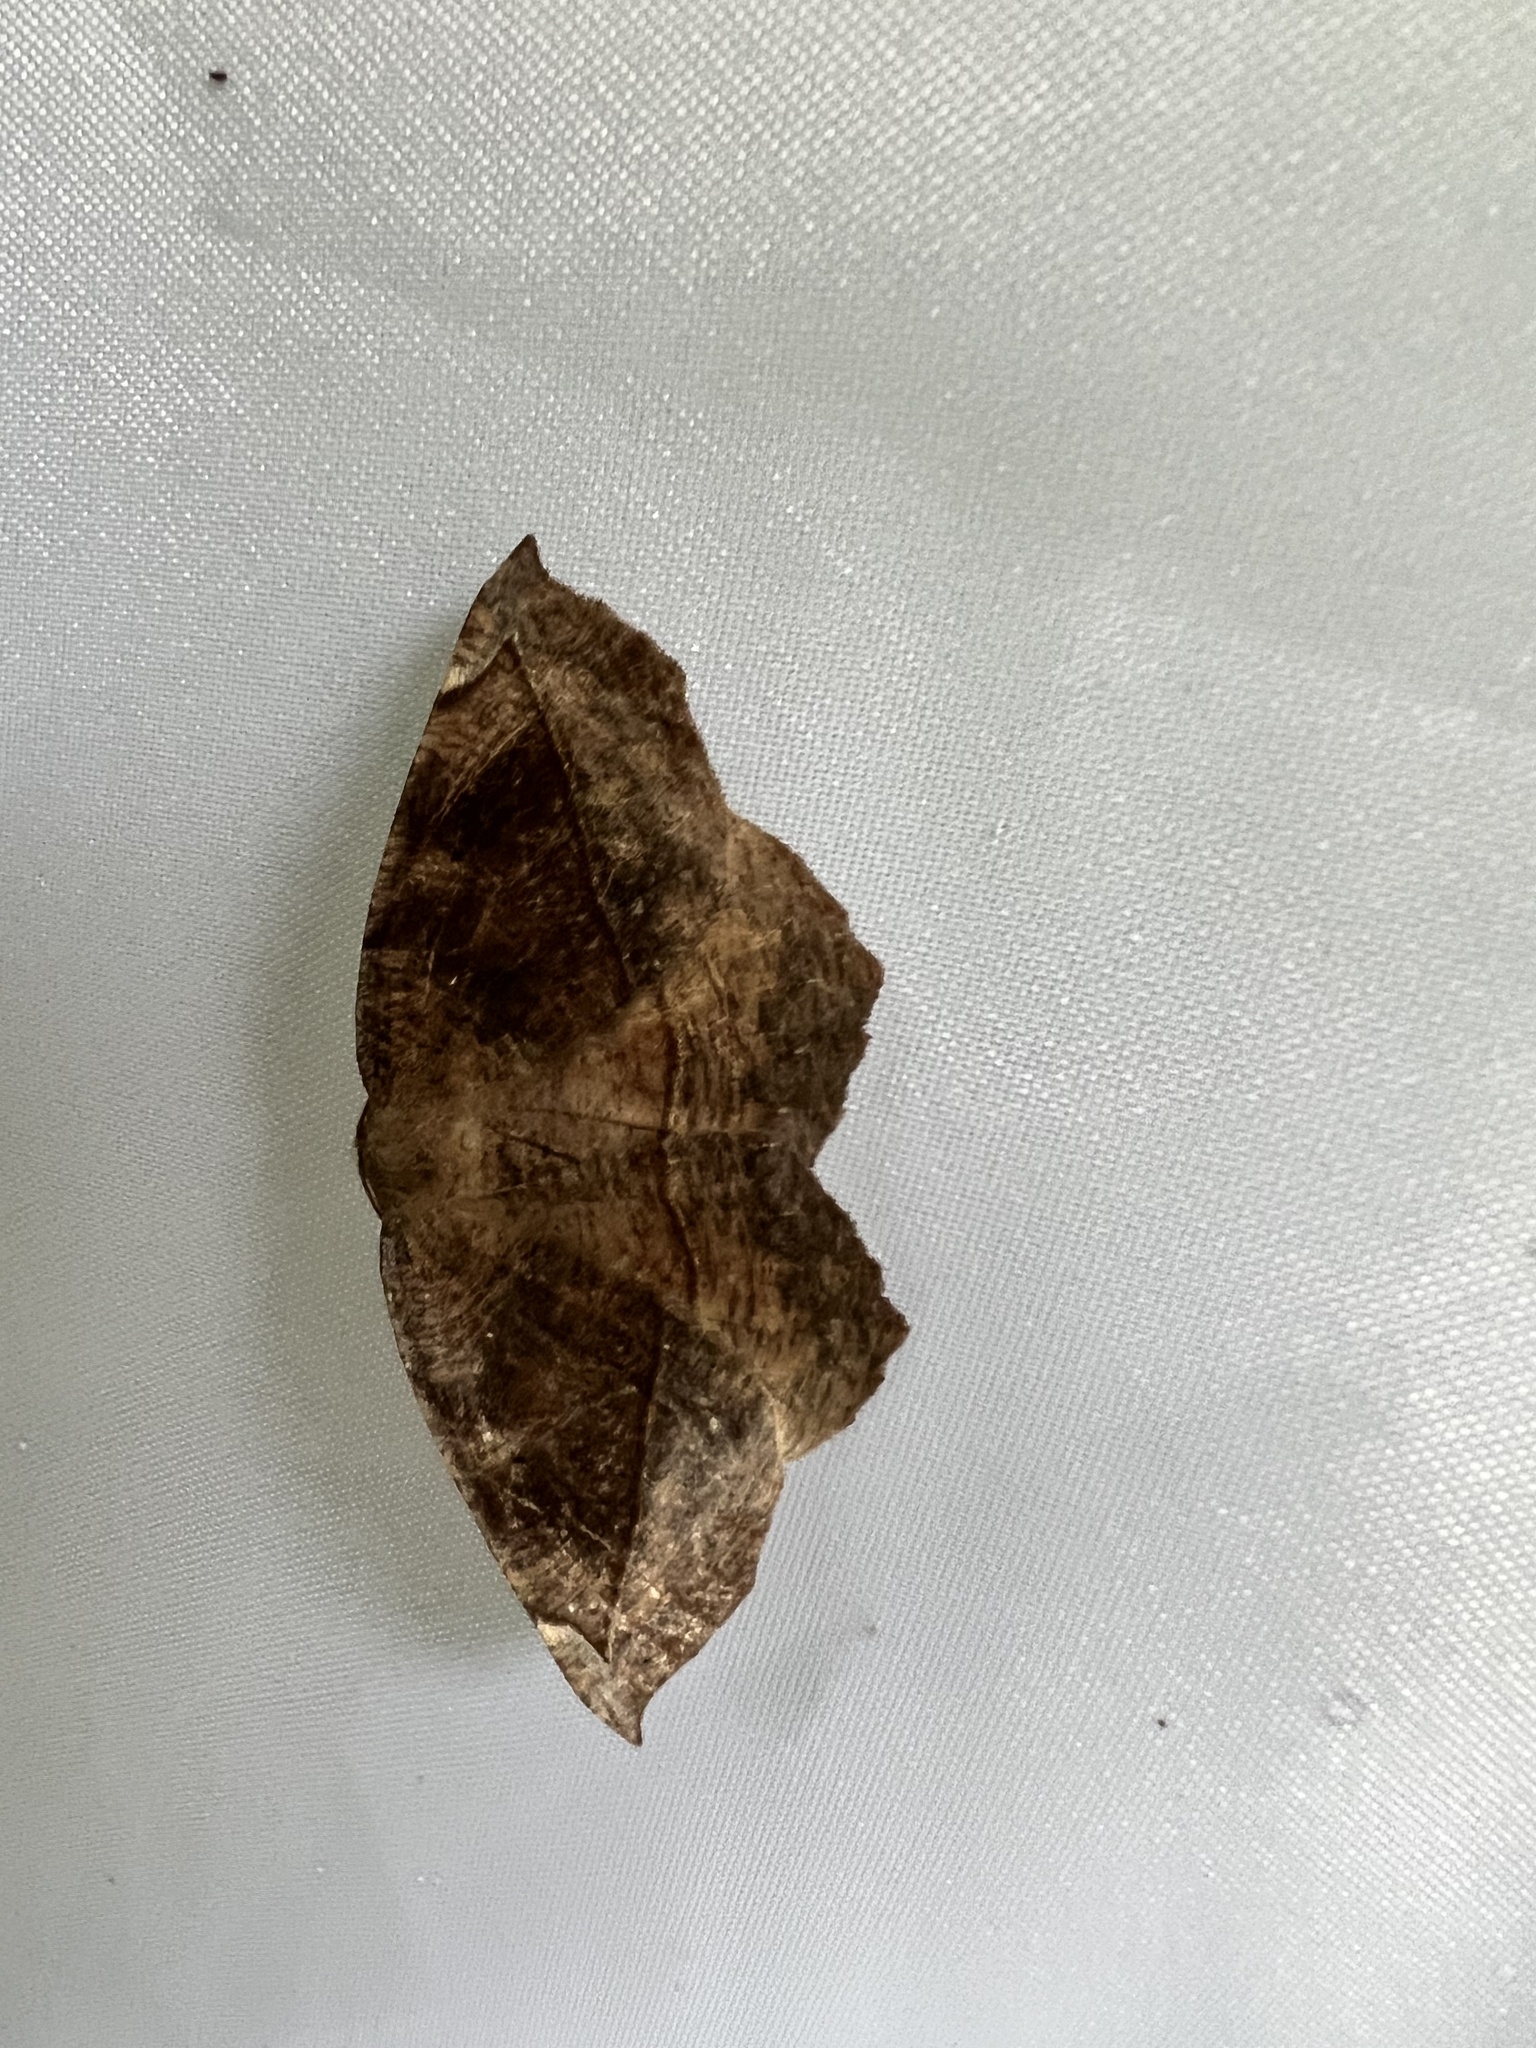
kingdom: Animalia
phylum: Arthropoda
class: Insecta
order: Lepidoptera
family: Geometridae
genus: Eutrapela
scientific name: Eutrapela clemataria
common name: Curved-toothed geometer
